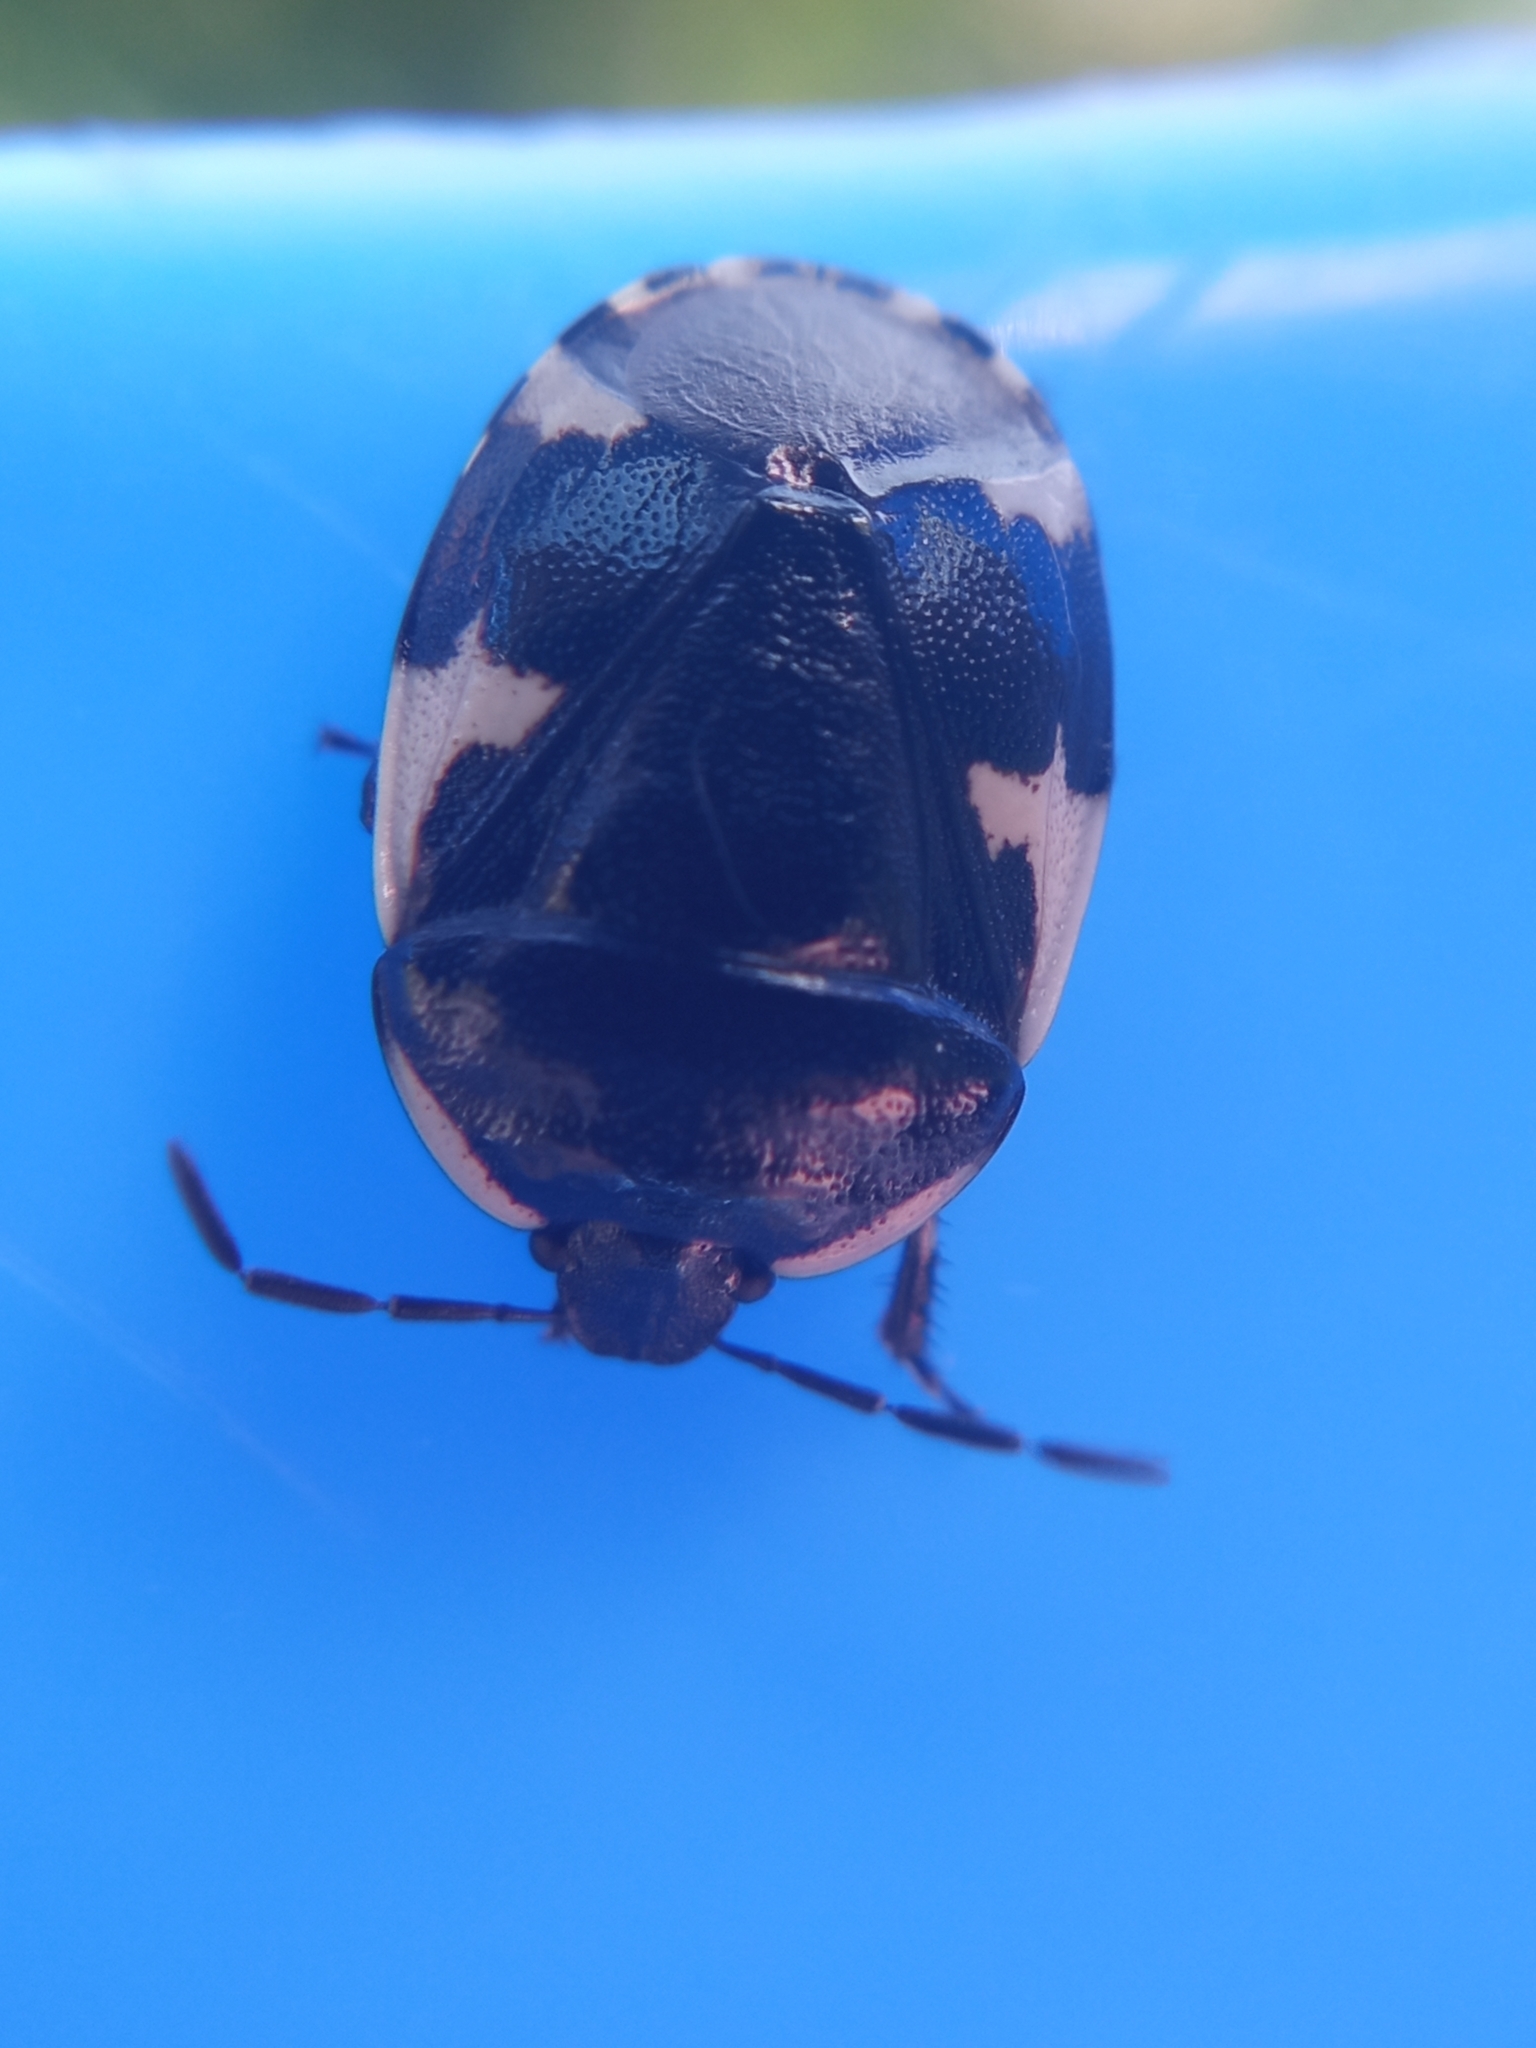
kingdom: Animalia
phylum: Arthropoda
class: Insecta
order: Hemiptera
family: Cydnidae
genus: Tritomegas
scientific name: Tritomegas sexmaculatus
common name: Rambur's pied shieldbug
